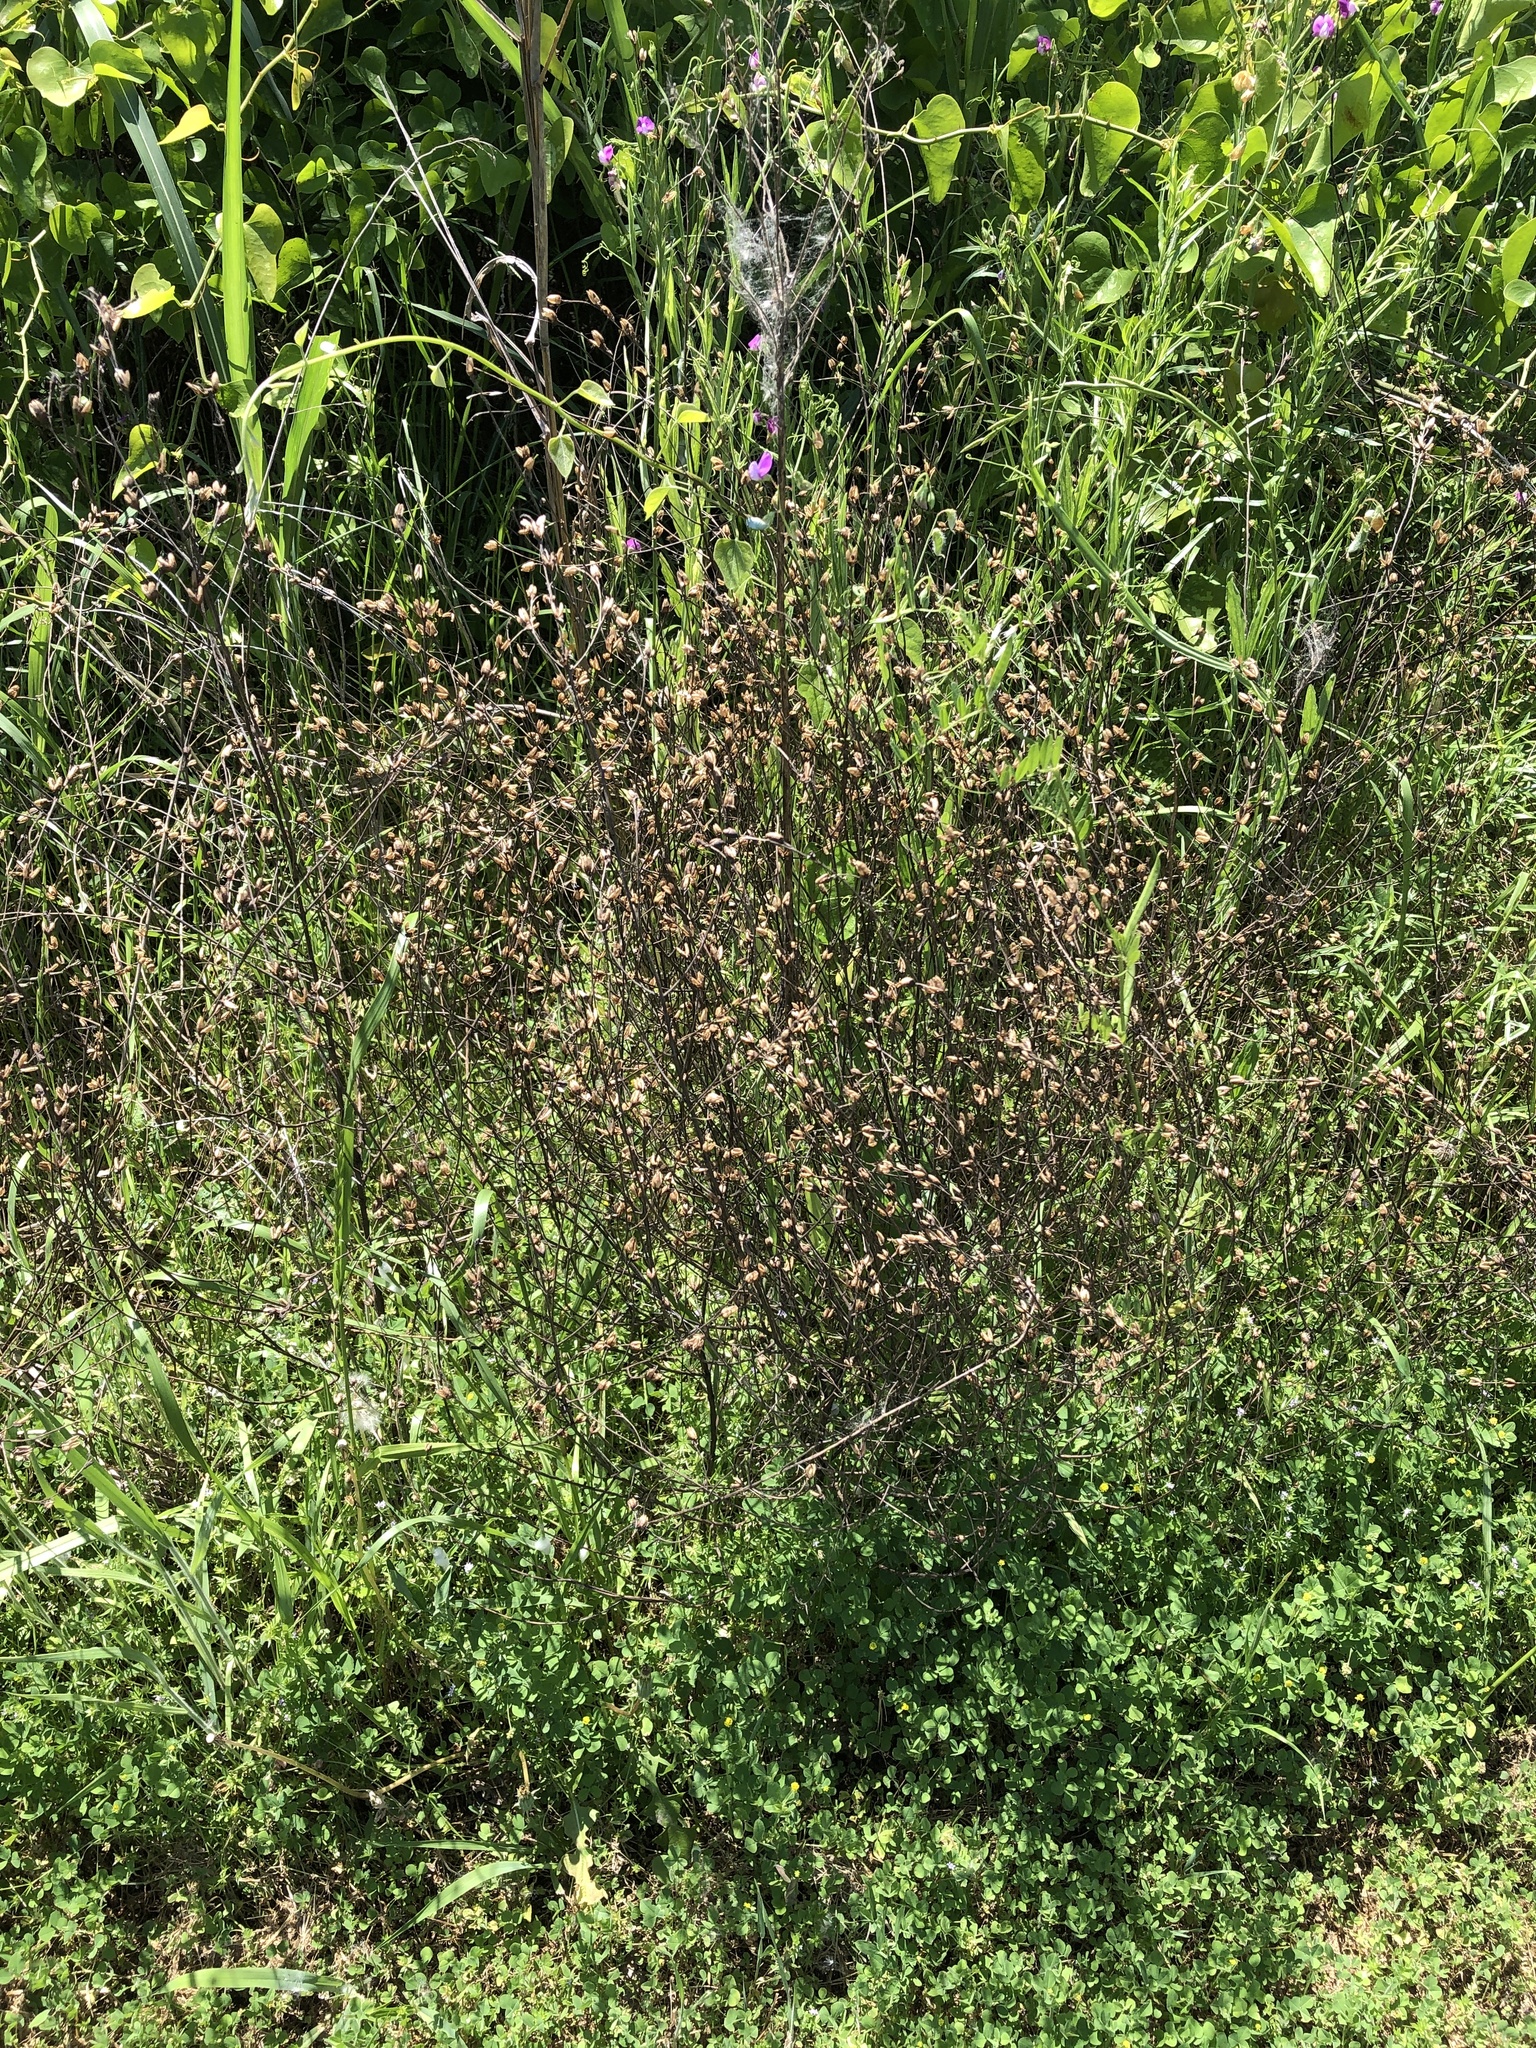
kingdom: Plantae
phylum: Tracheophyta
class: Magnoliopsida
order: Lamiales
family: Orobanchaceae
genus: Agalinis
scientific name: Agalinis heterophylla
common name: Prairie agalinis
